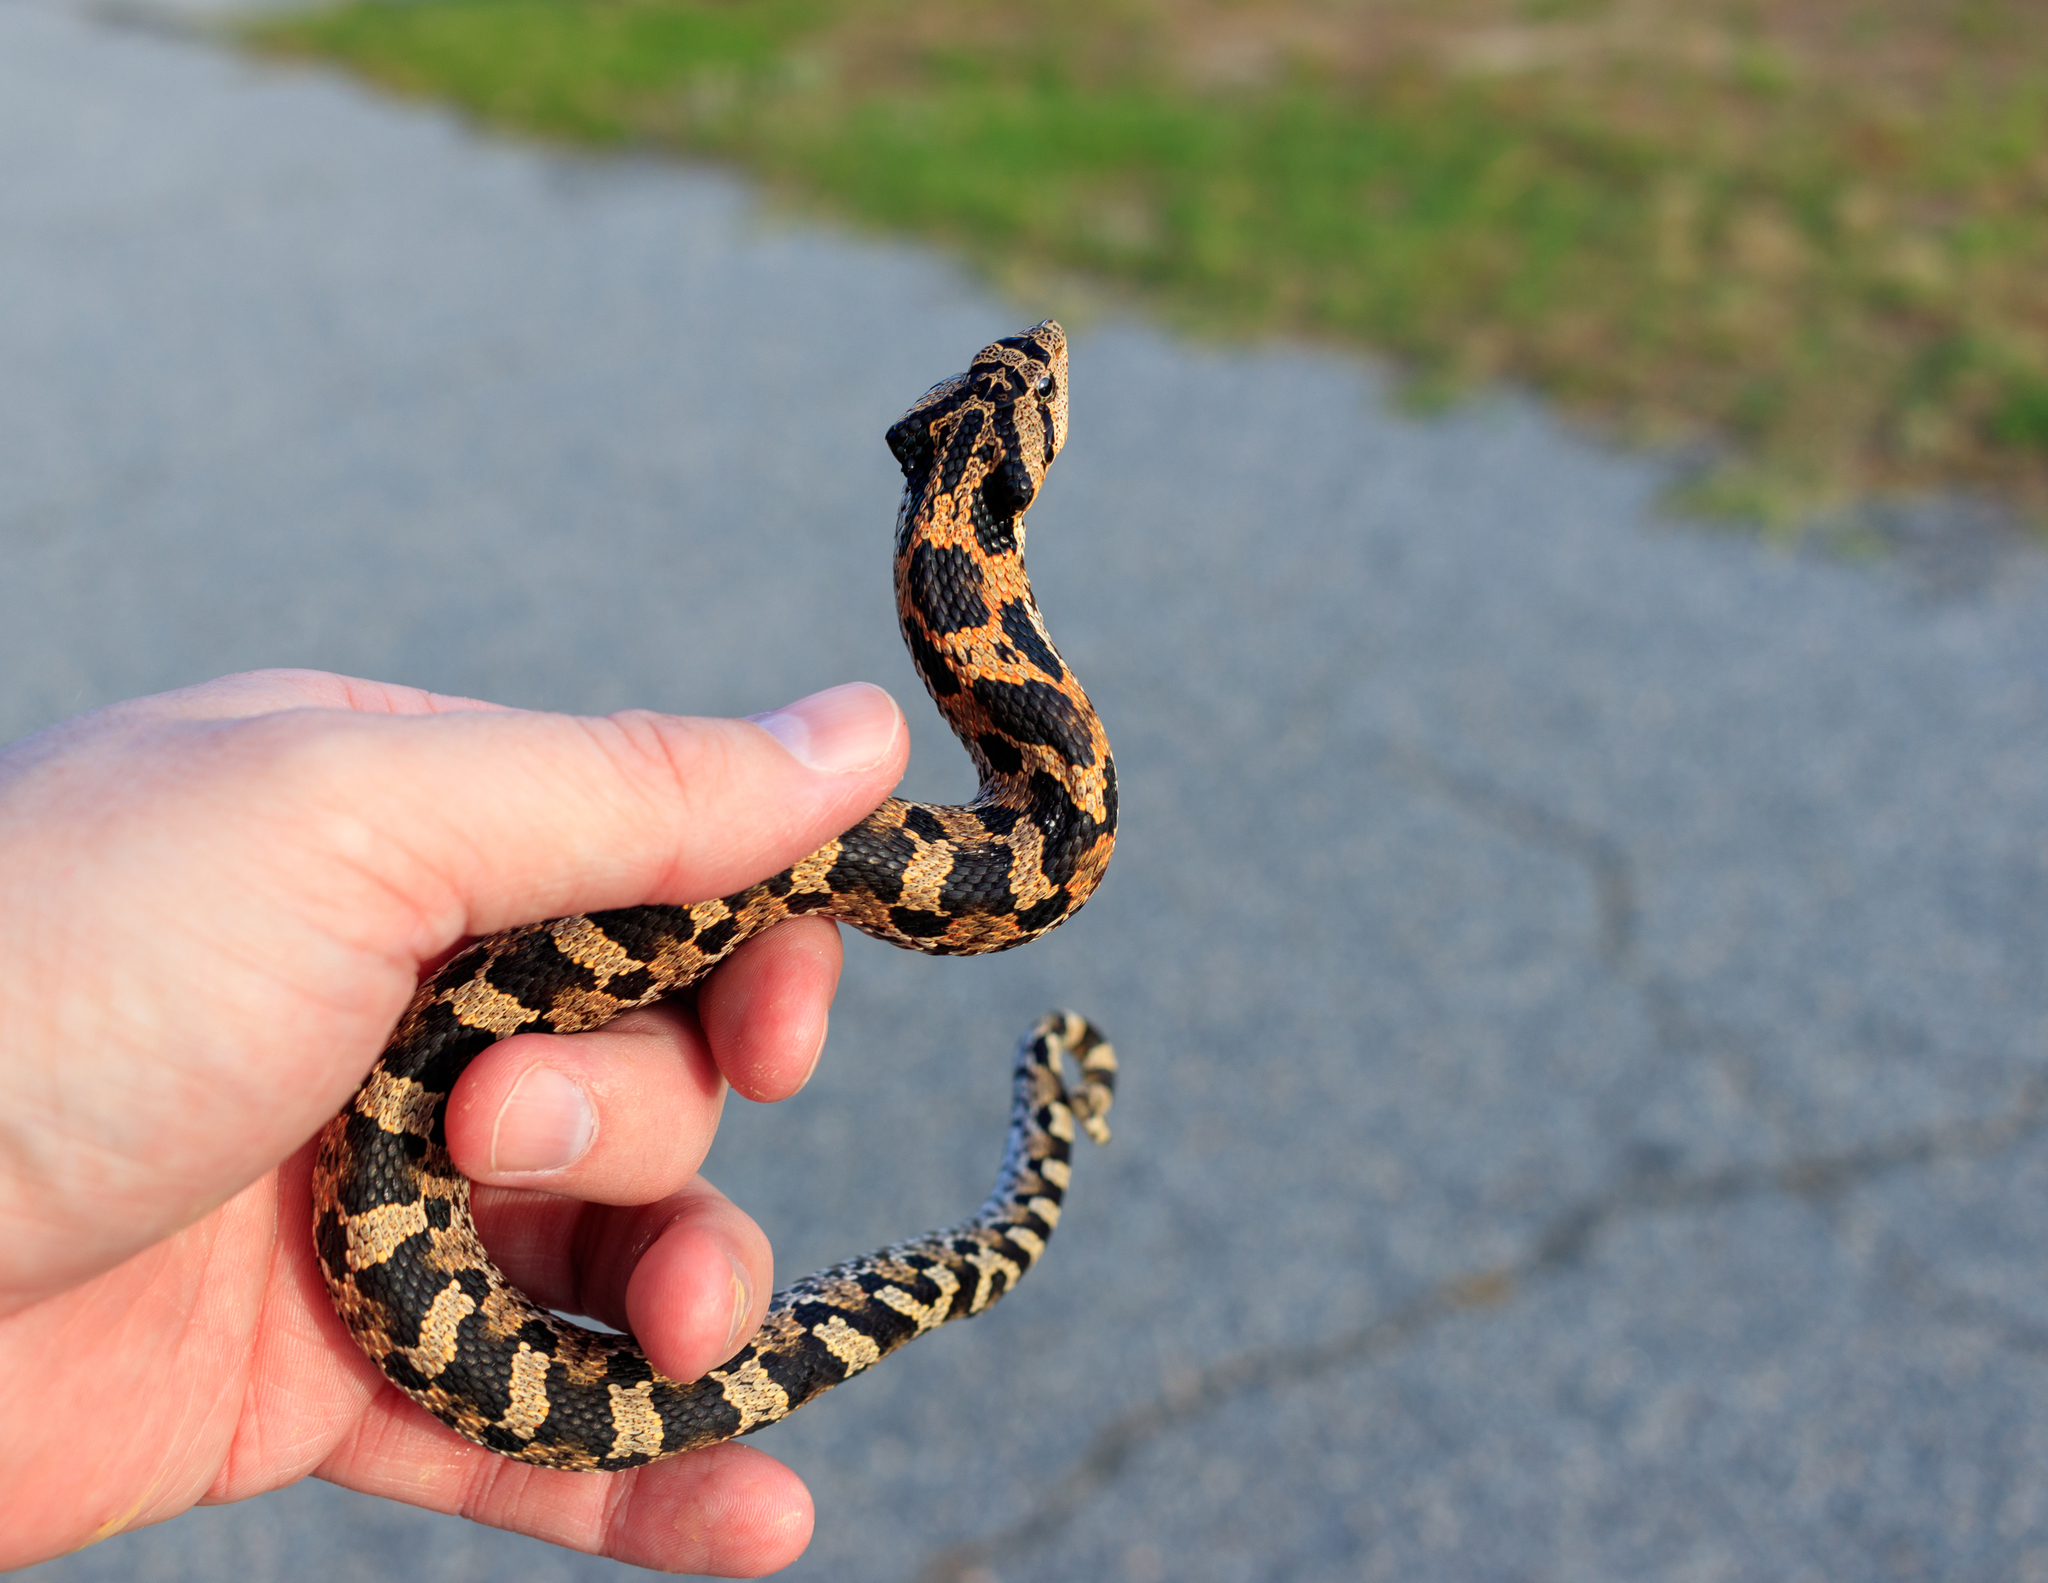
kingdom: Animalia
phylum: Chordata
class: Squamata
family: Colubridae
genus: Heterodon
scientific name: Heterodon platirhinos
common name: Eastern hognose snake
